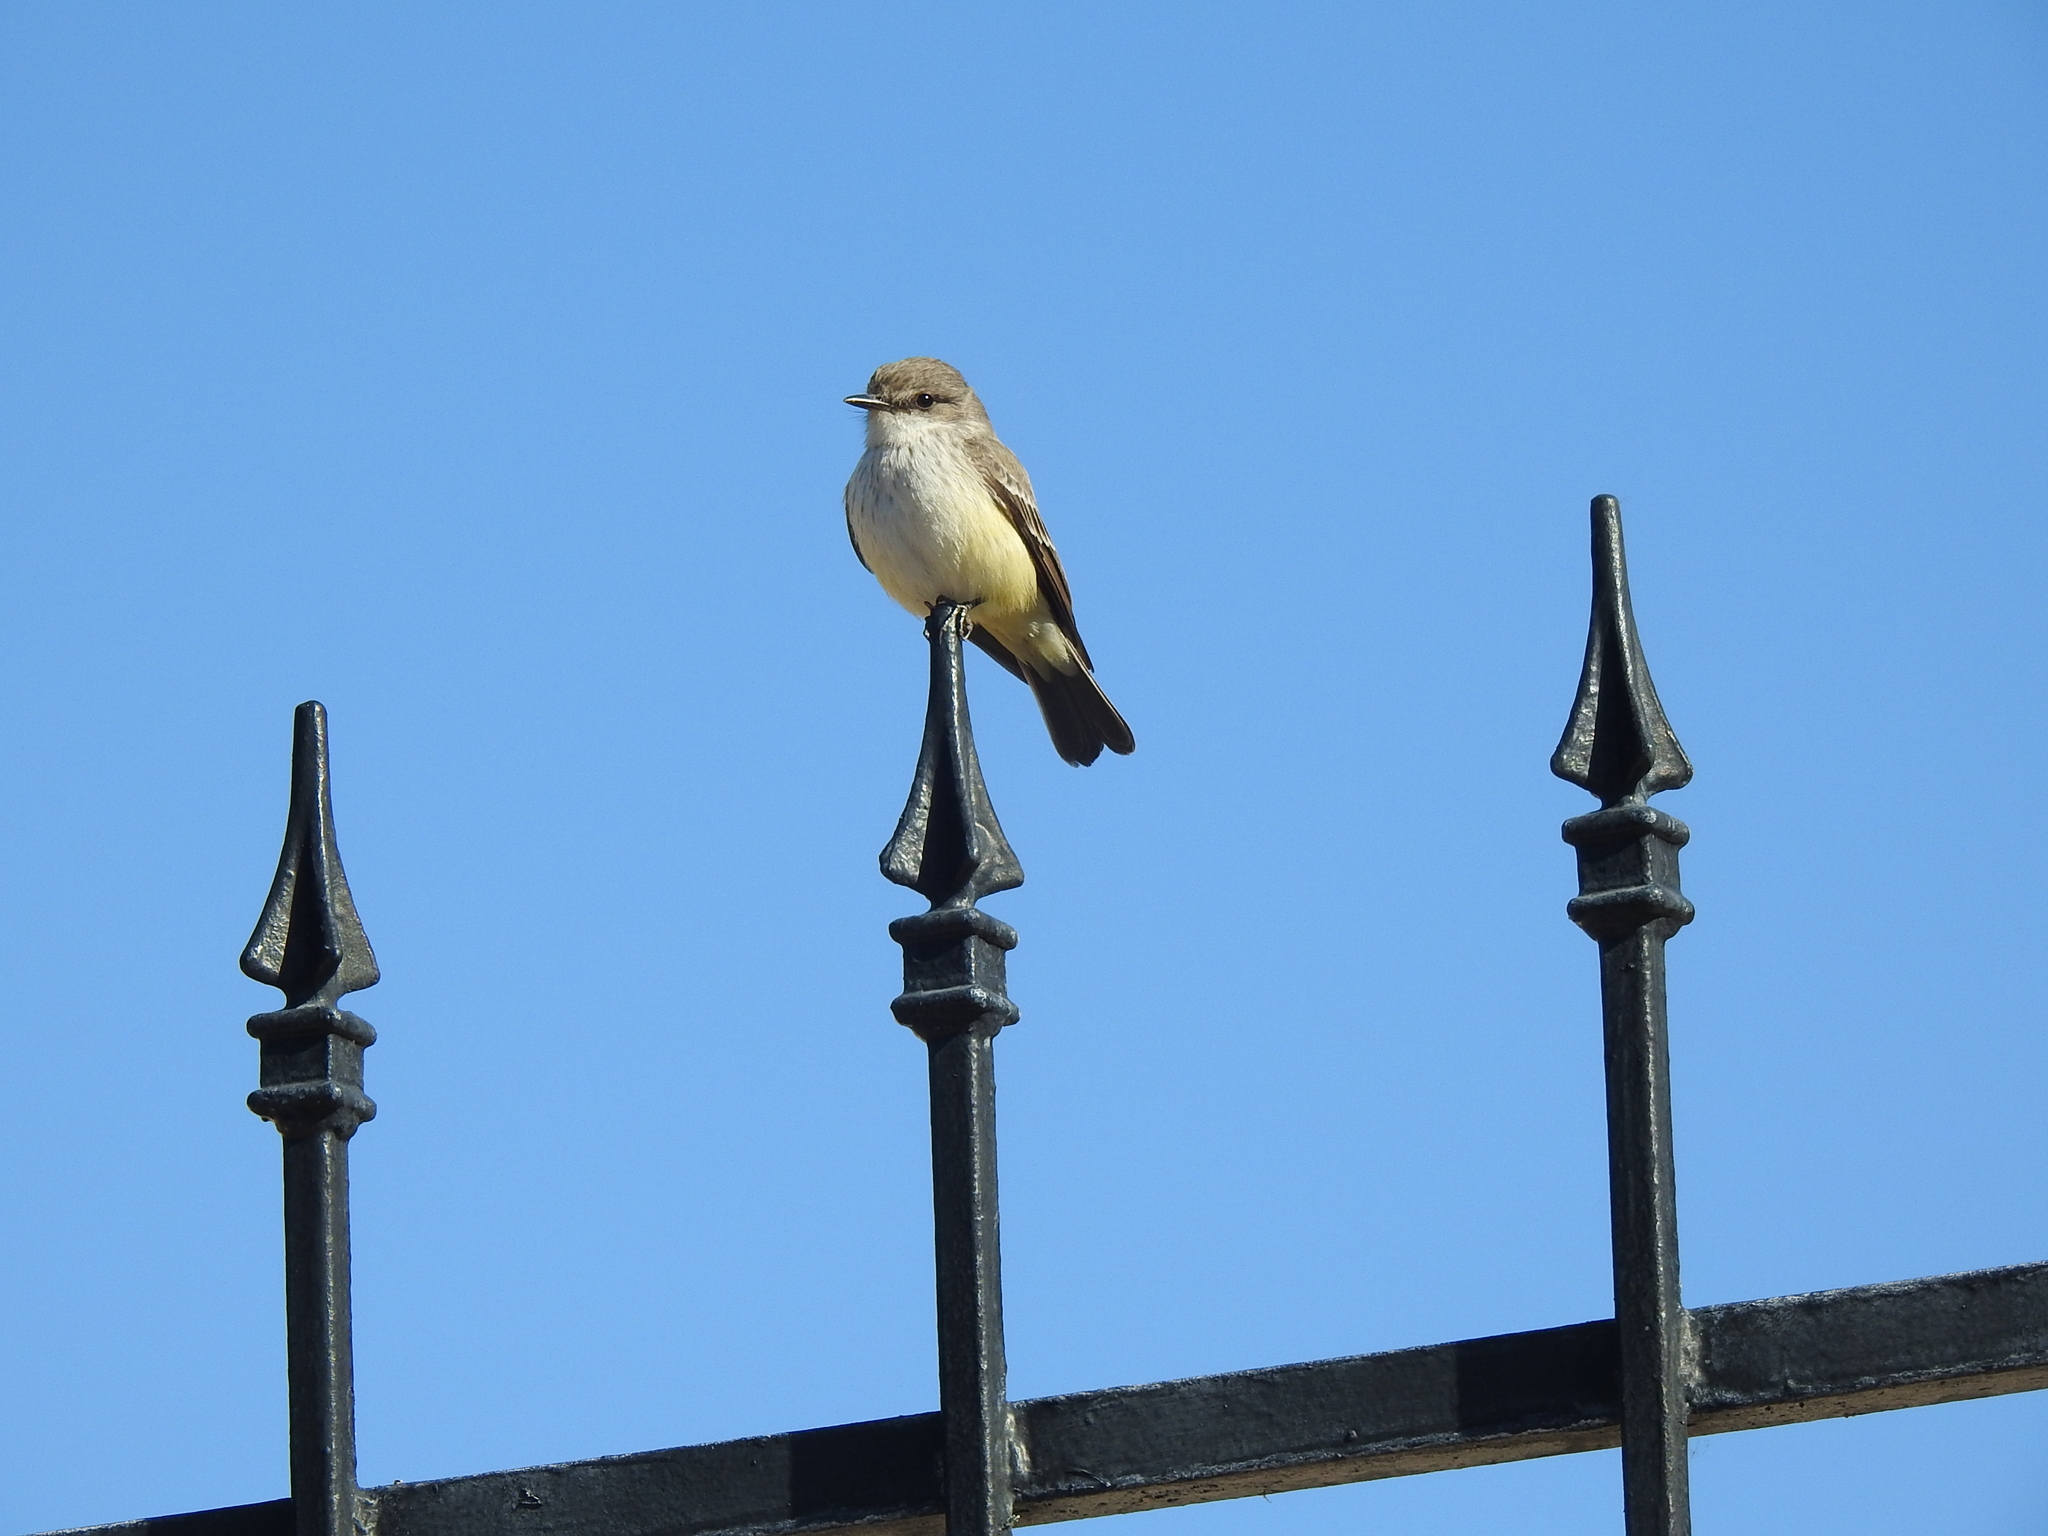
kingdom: Animalia
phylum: Chordata
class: Aves
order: Passeriformes
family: Tyrannidae
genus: Pyrocephalus
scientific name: Pyrocephalus rubinus
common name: Vermilion flycatcher
